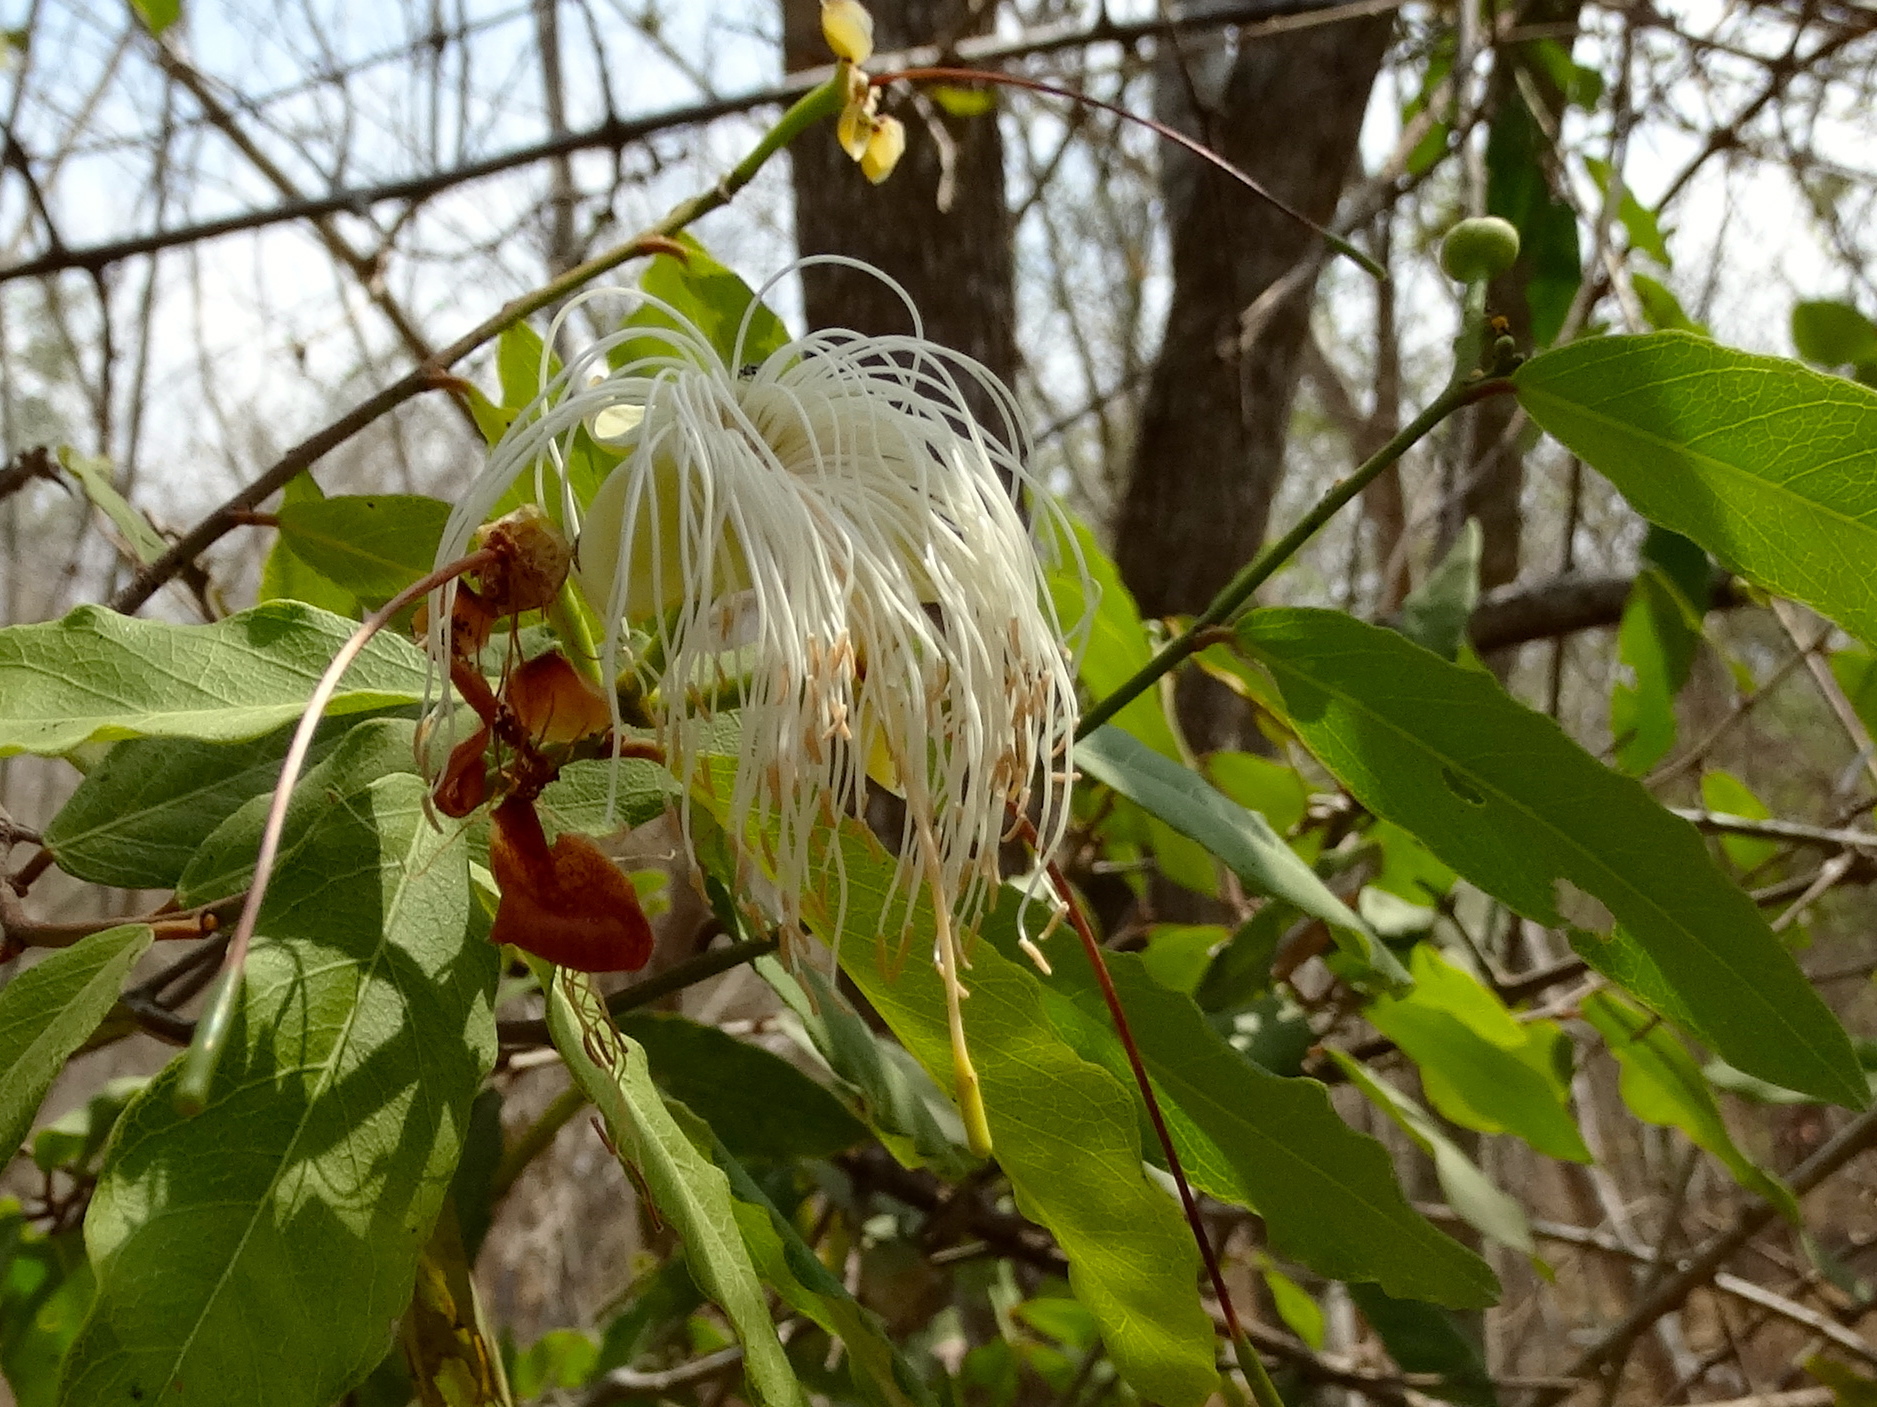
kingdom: Plantae
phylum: Tracheophyta
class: Magnoliopsida
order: Brassicales
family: Capparaceae
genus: Cynophalla
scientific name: Cynophalla flexuosa
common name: Capertree
